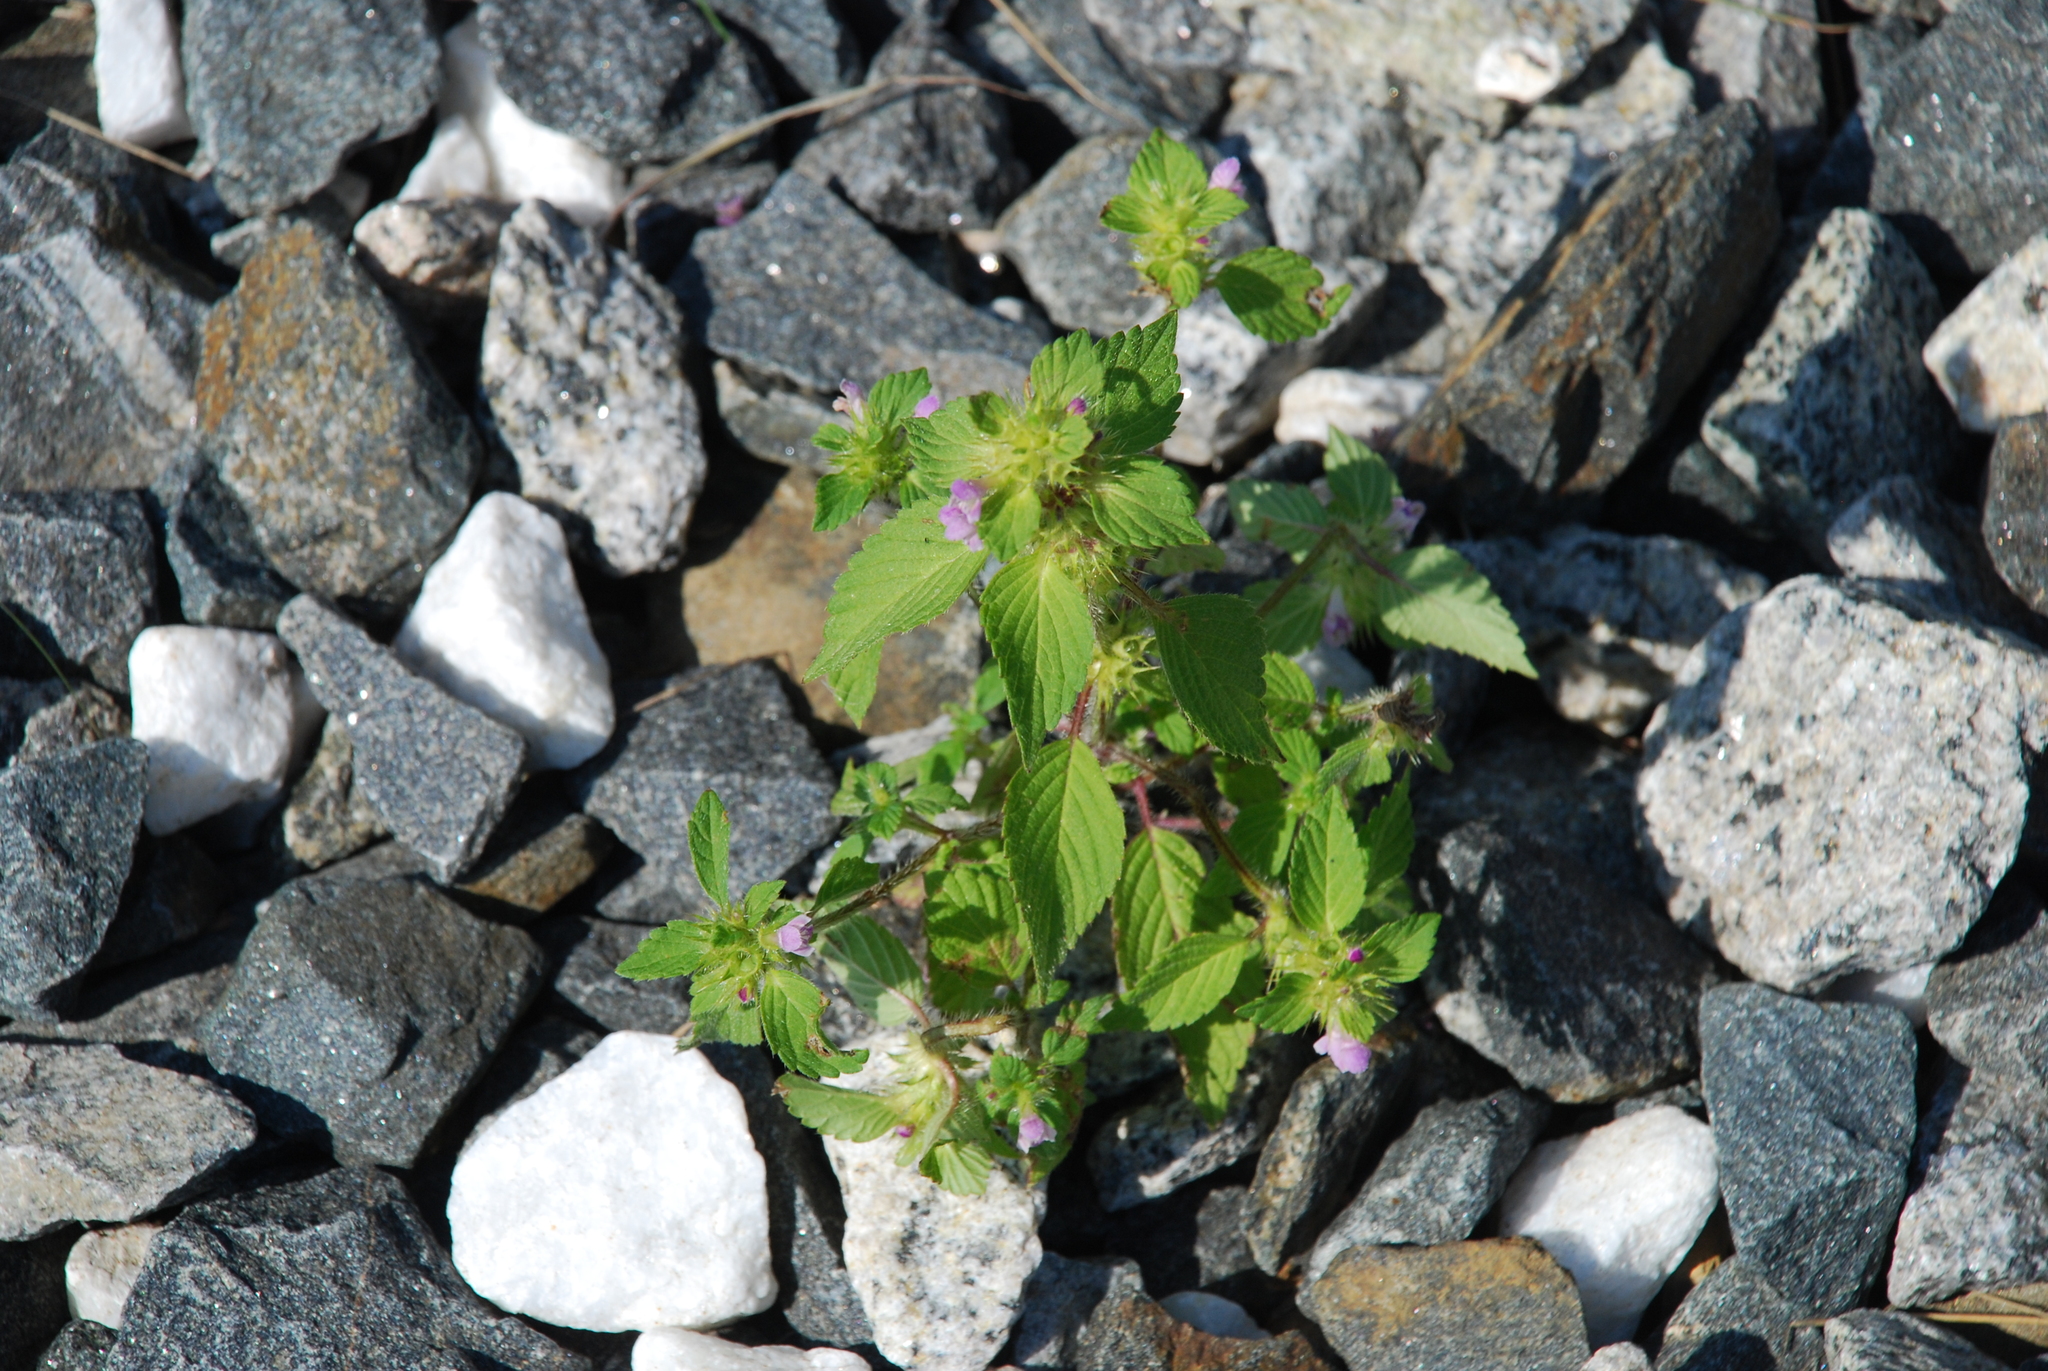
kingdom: Plantae
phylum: Tracheophyta
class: Magnoliopsida
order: Lamiales
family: Lamiaceae
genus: Galeopsis
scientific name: Galeopsis bifida
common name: Bifid hemp-nettle
